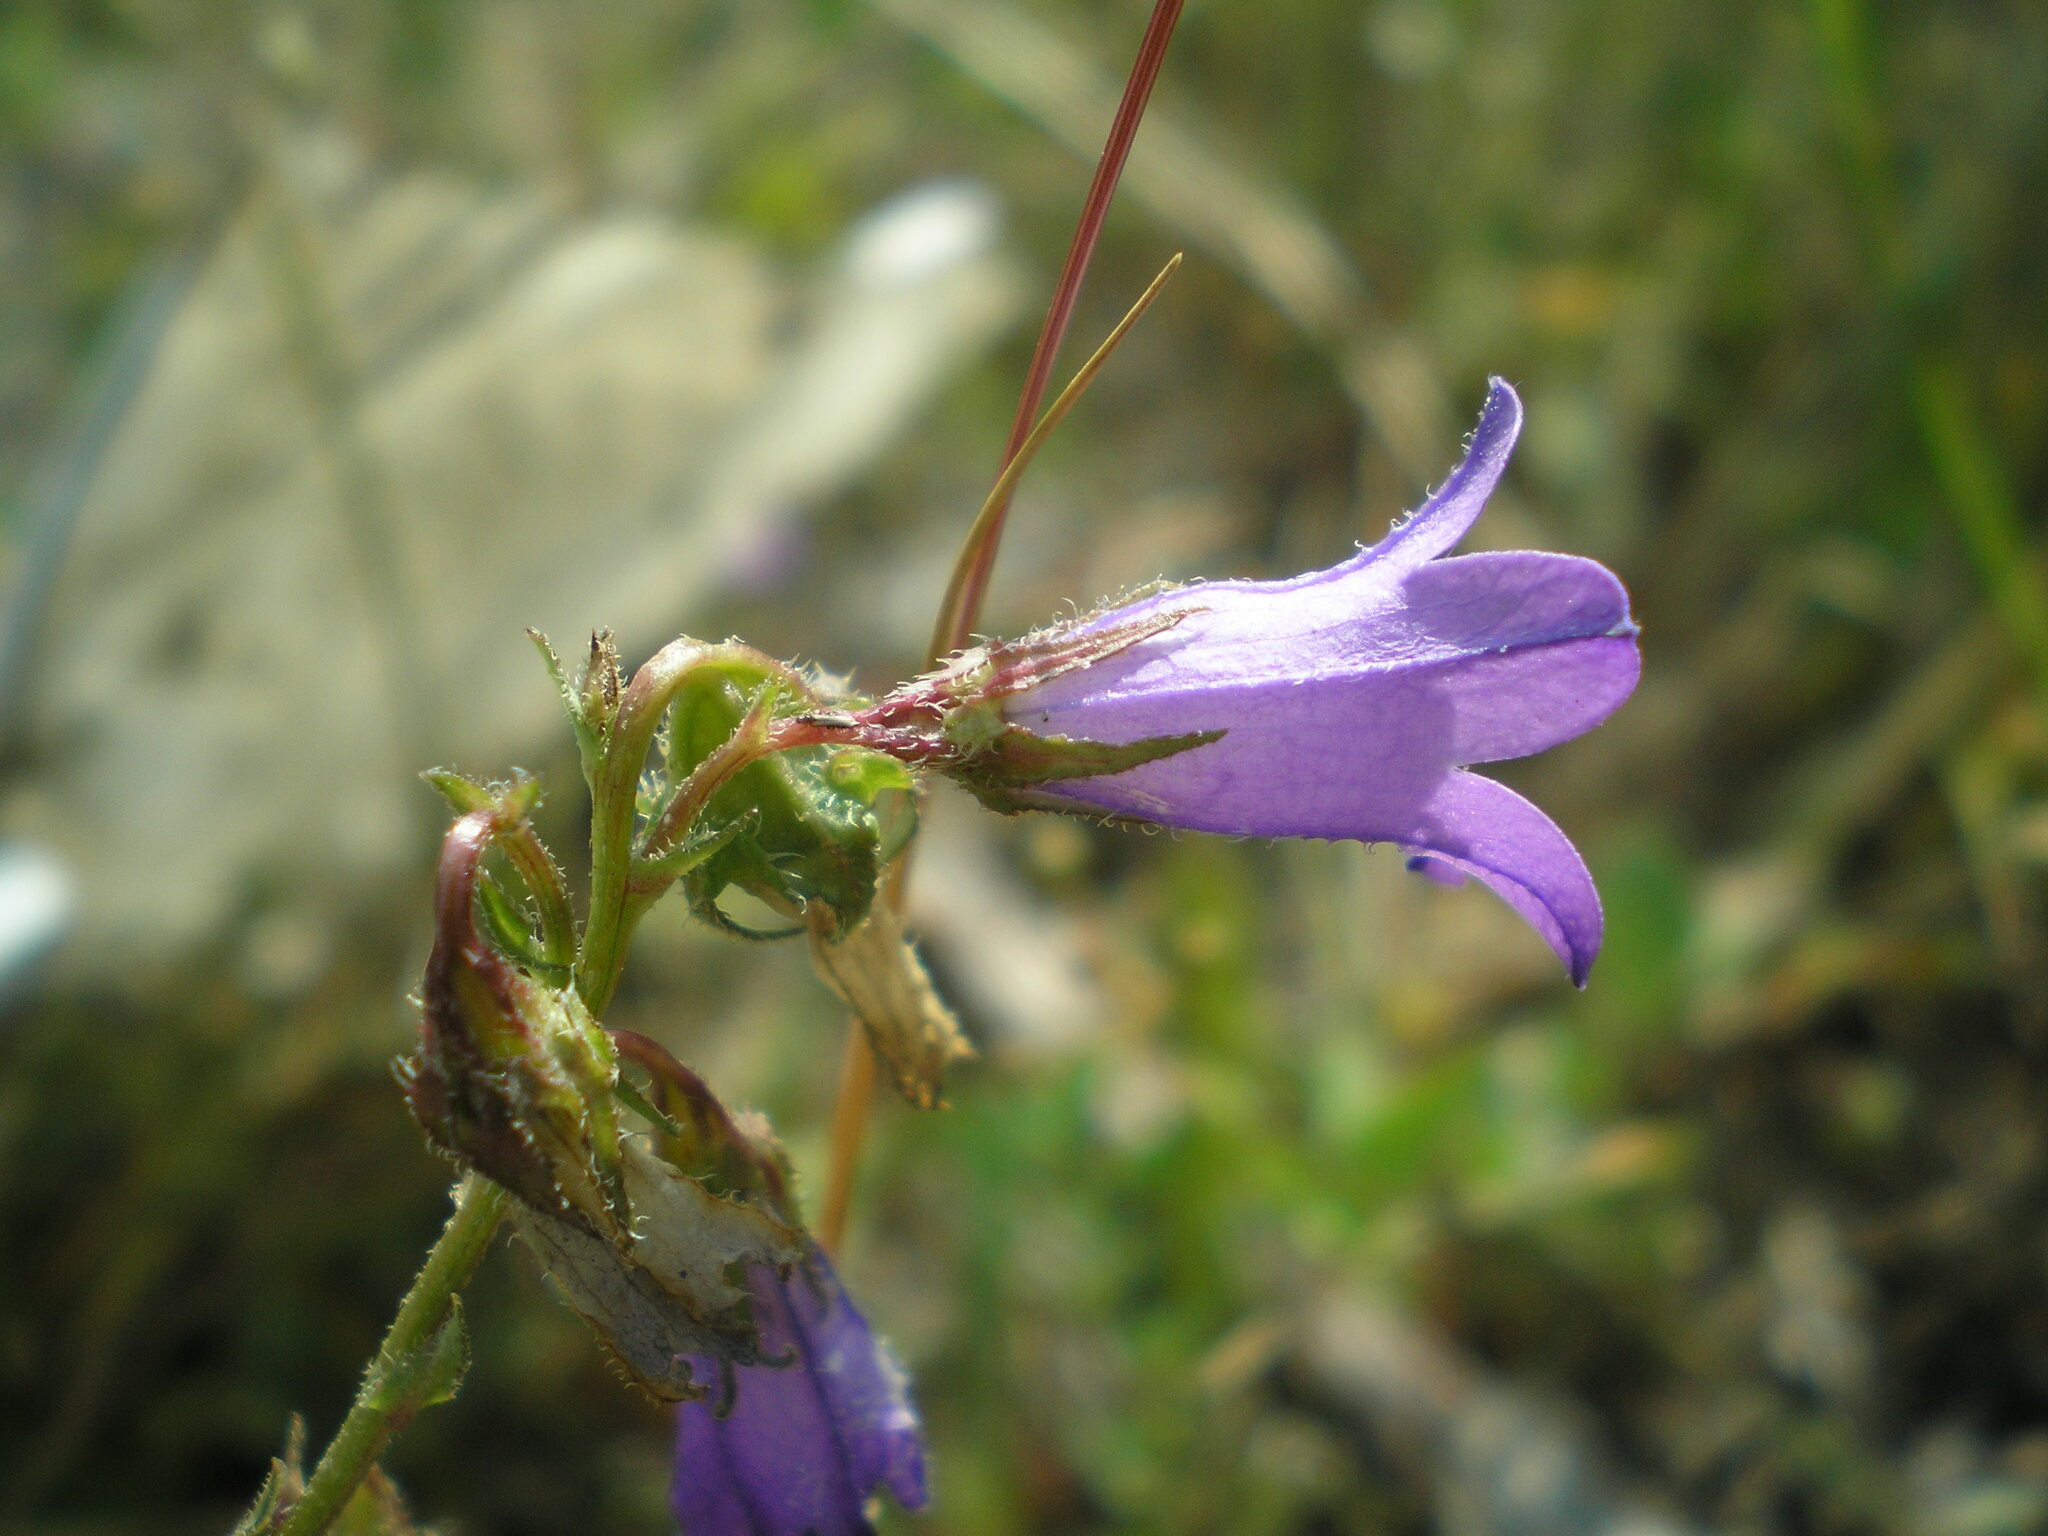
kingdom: Plantae
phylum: Tracheophyta
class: Magnoliopsida
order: Asterales
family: Campanulaceae
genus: Campanula
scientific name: Campanula sibirica
